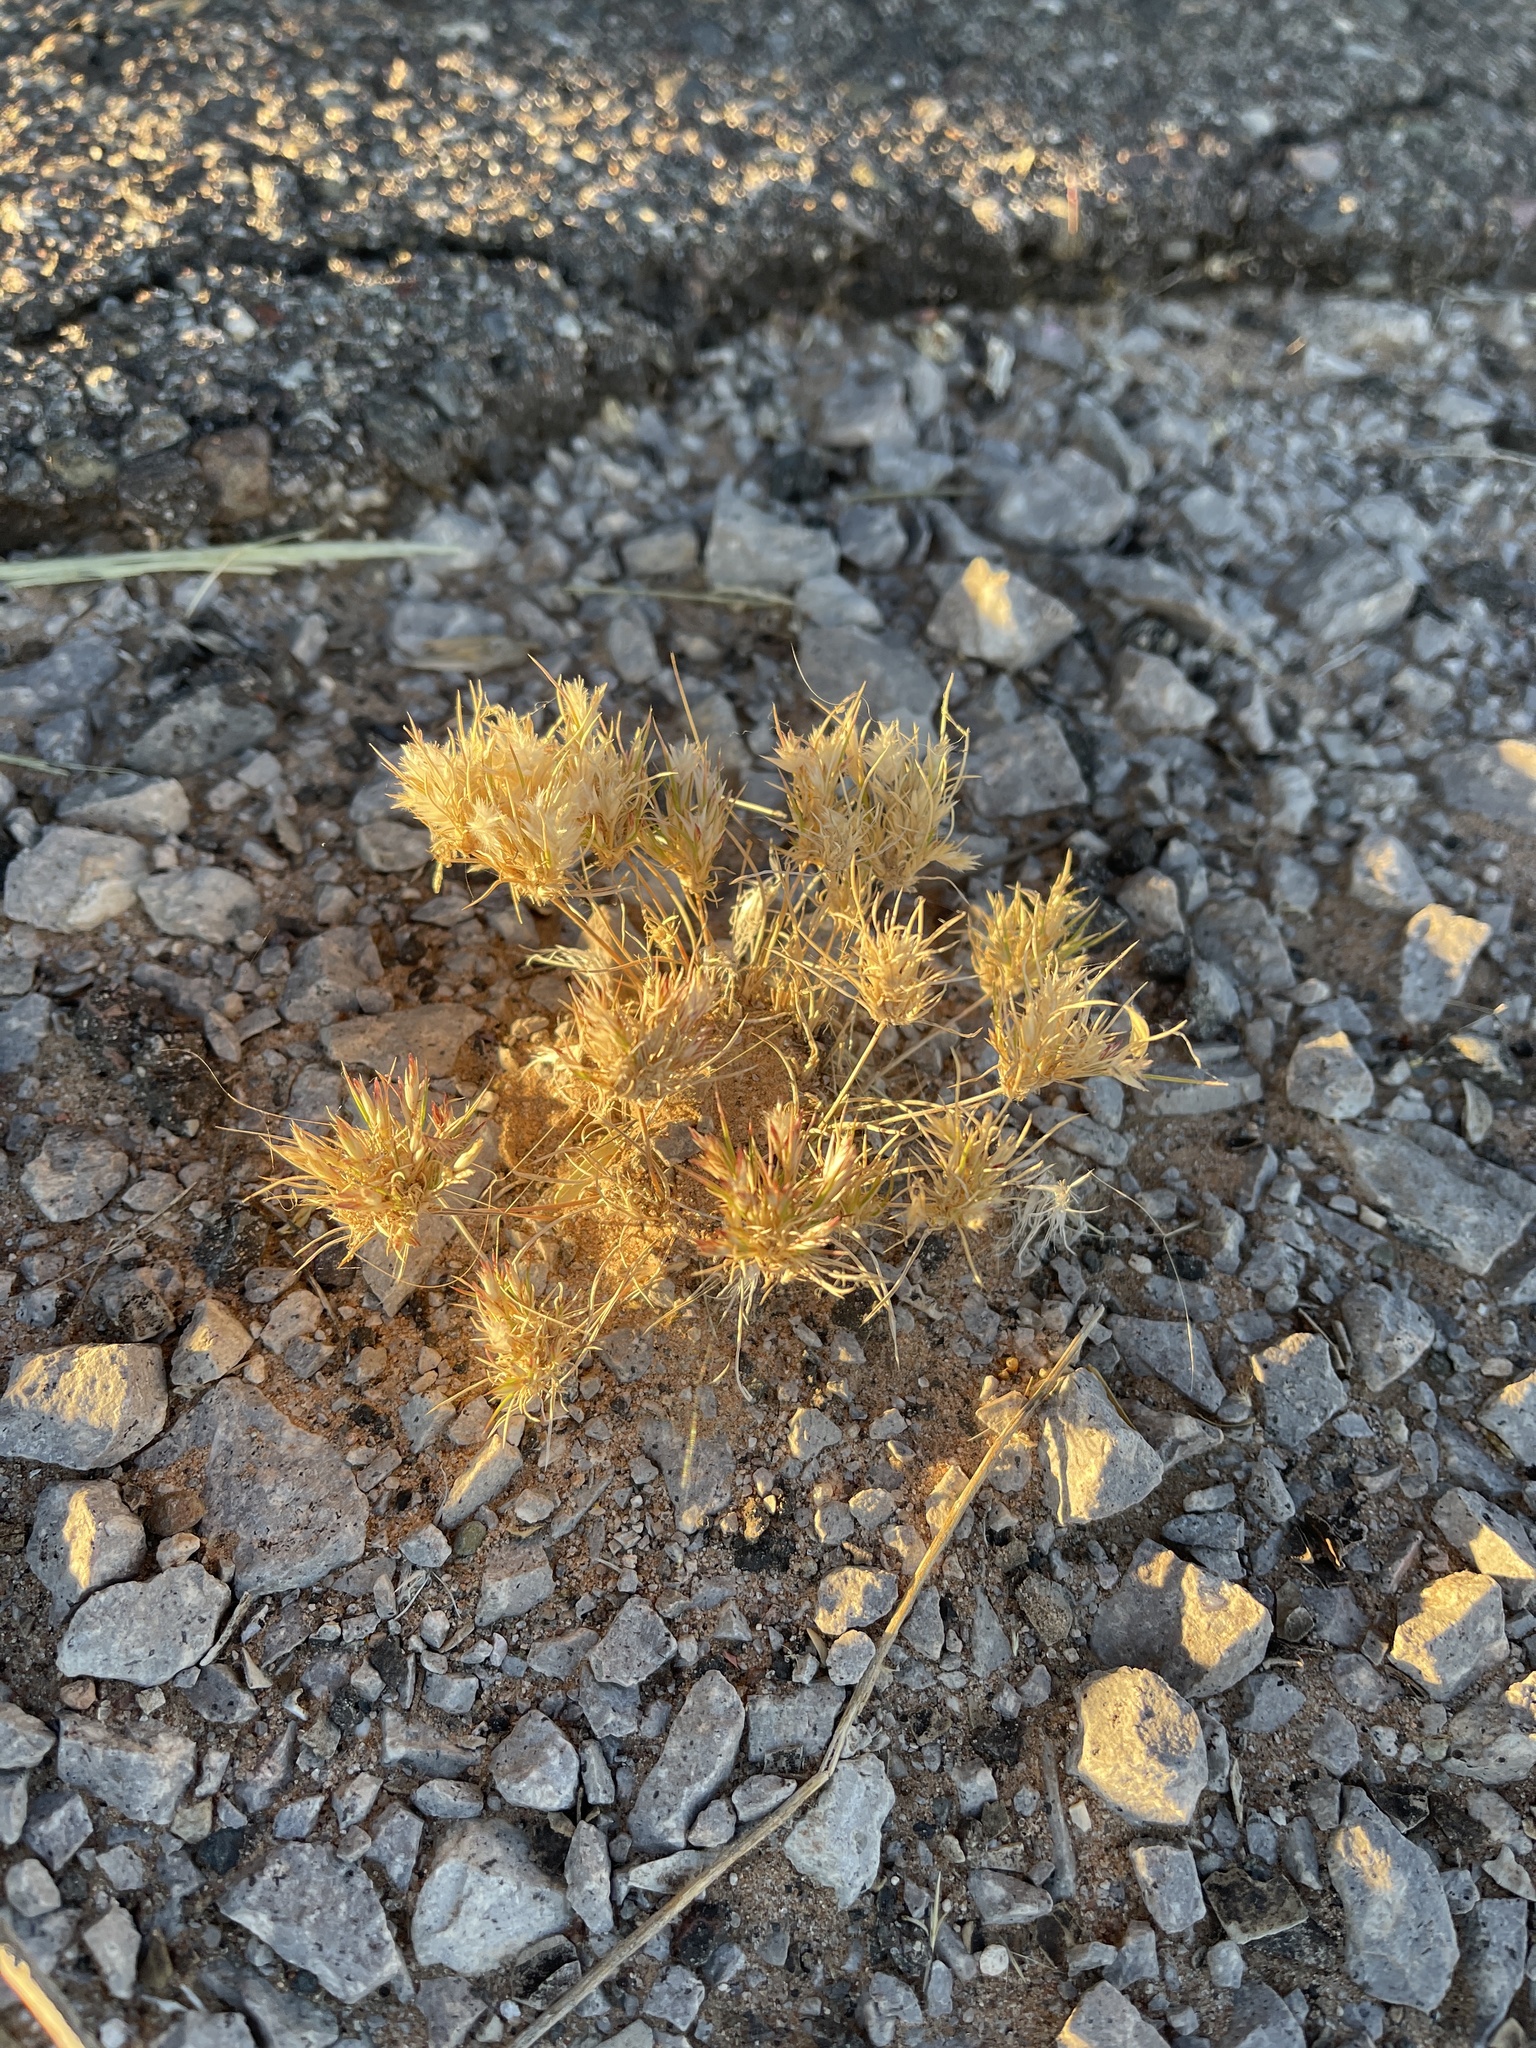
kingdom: Plantae
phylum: Tracheophyta
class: Liliopsida
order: Poales
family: Poaceae
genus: Dasyochloa
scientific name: Dasyochloa pulchella
